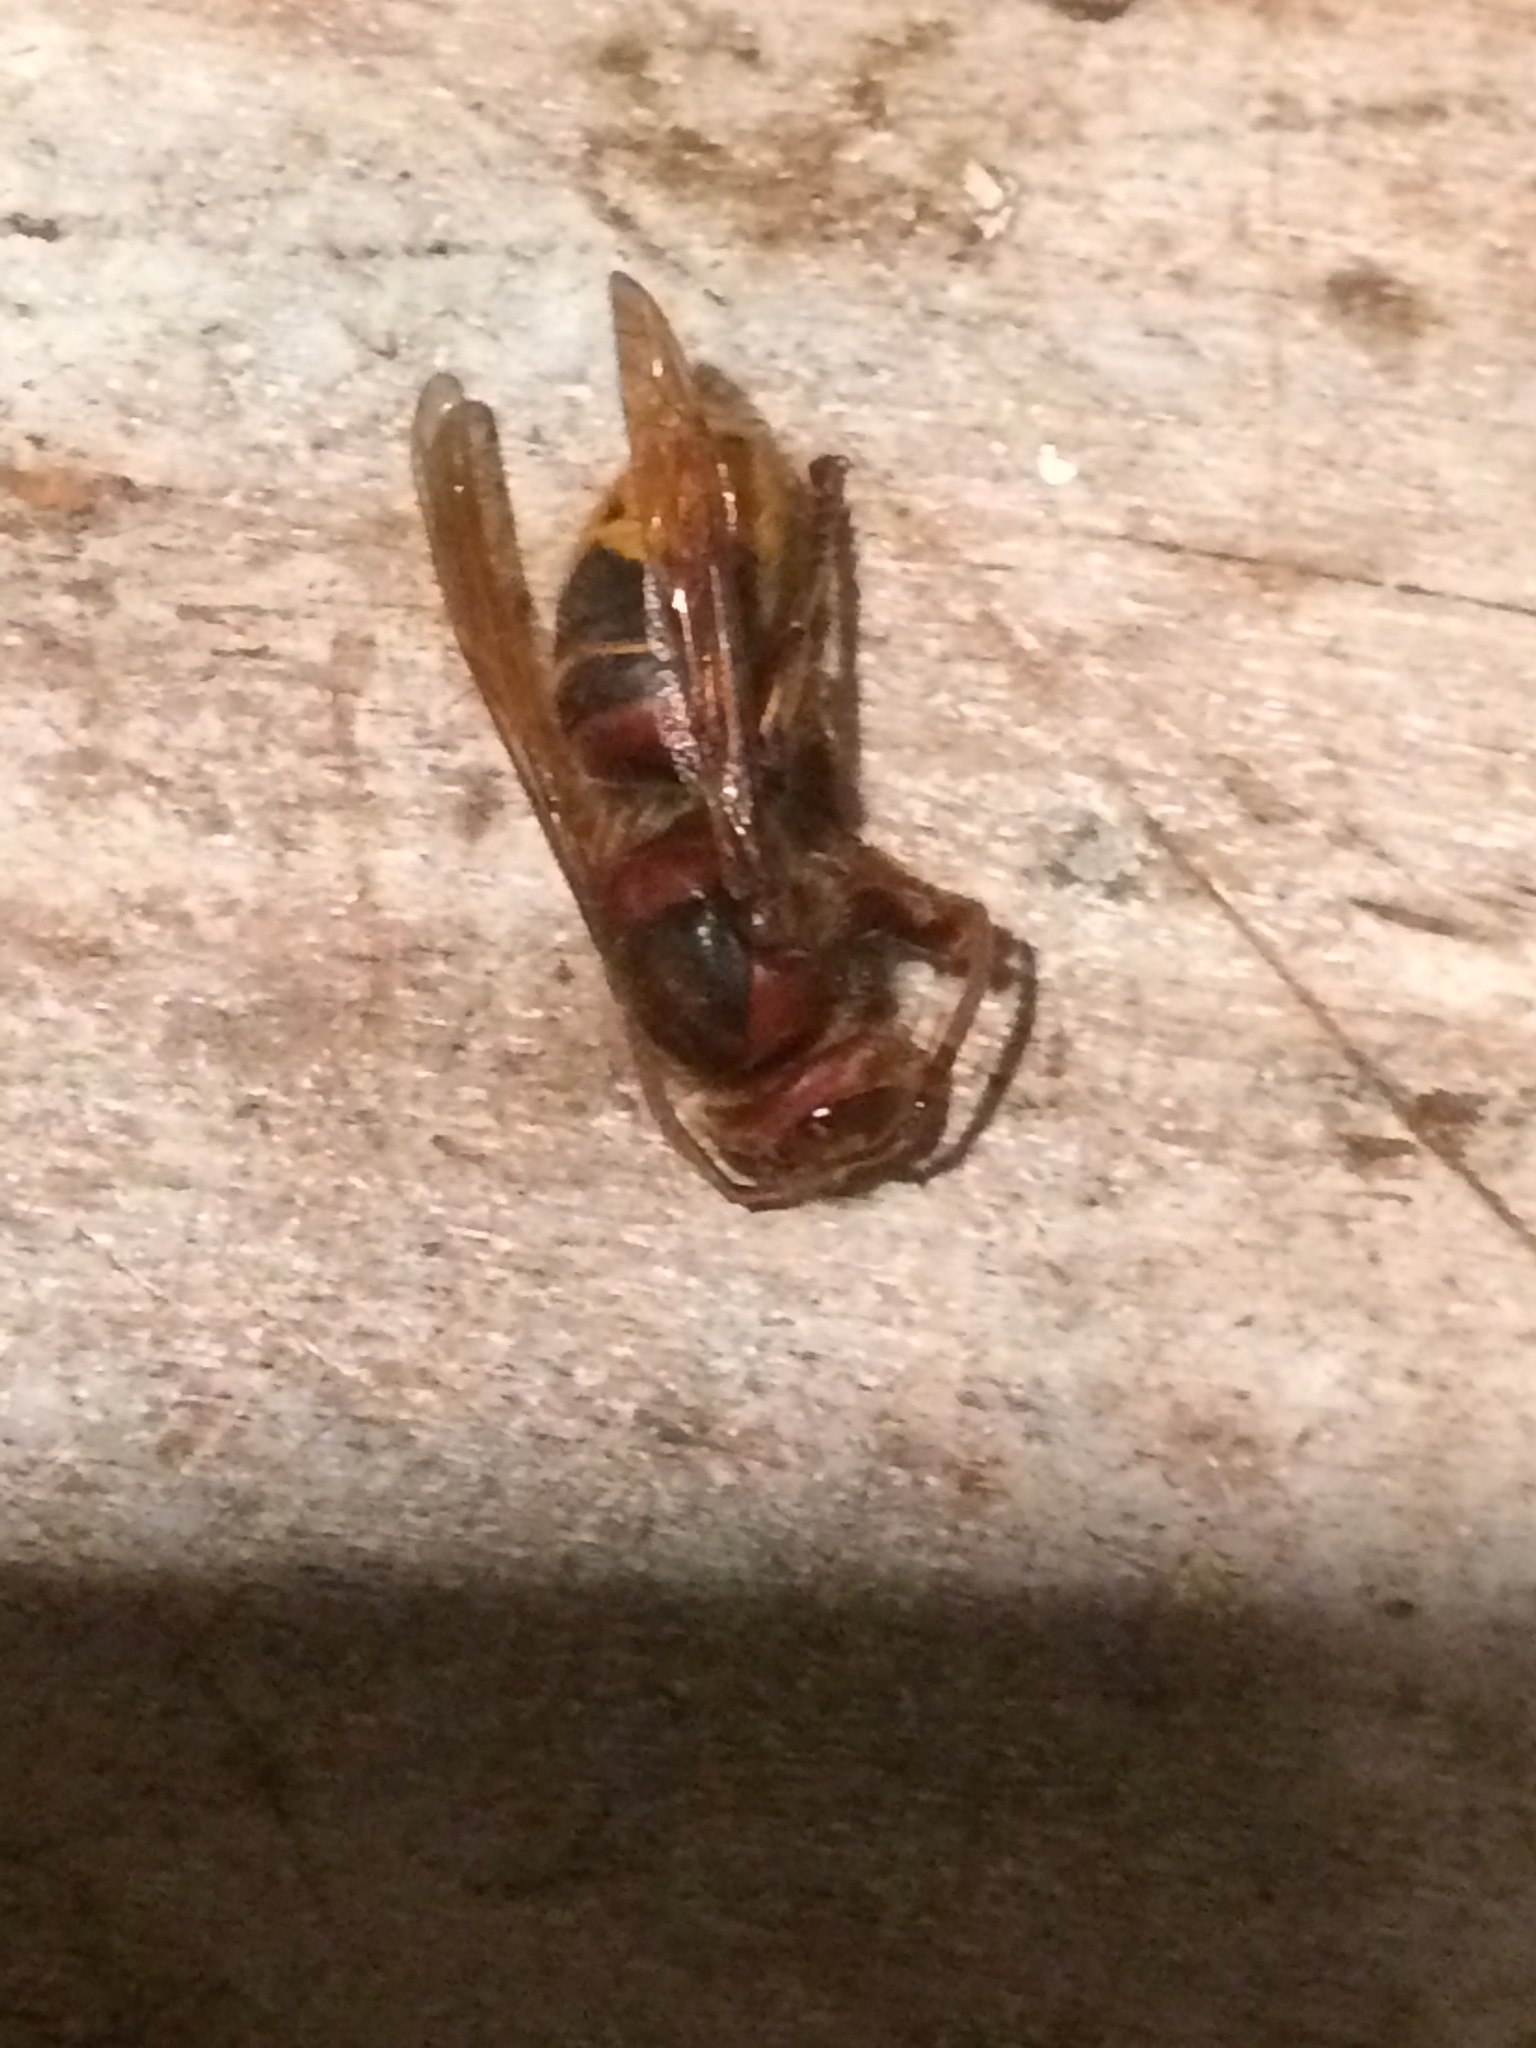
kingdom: Animalia
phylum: Arthropoda
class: Insecta
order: Hymenoptera
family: Vespidae
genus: Vespa
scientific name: Vespa crabro
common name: Hornet
